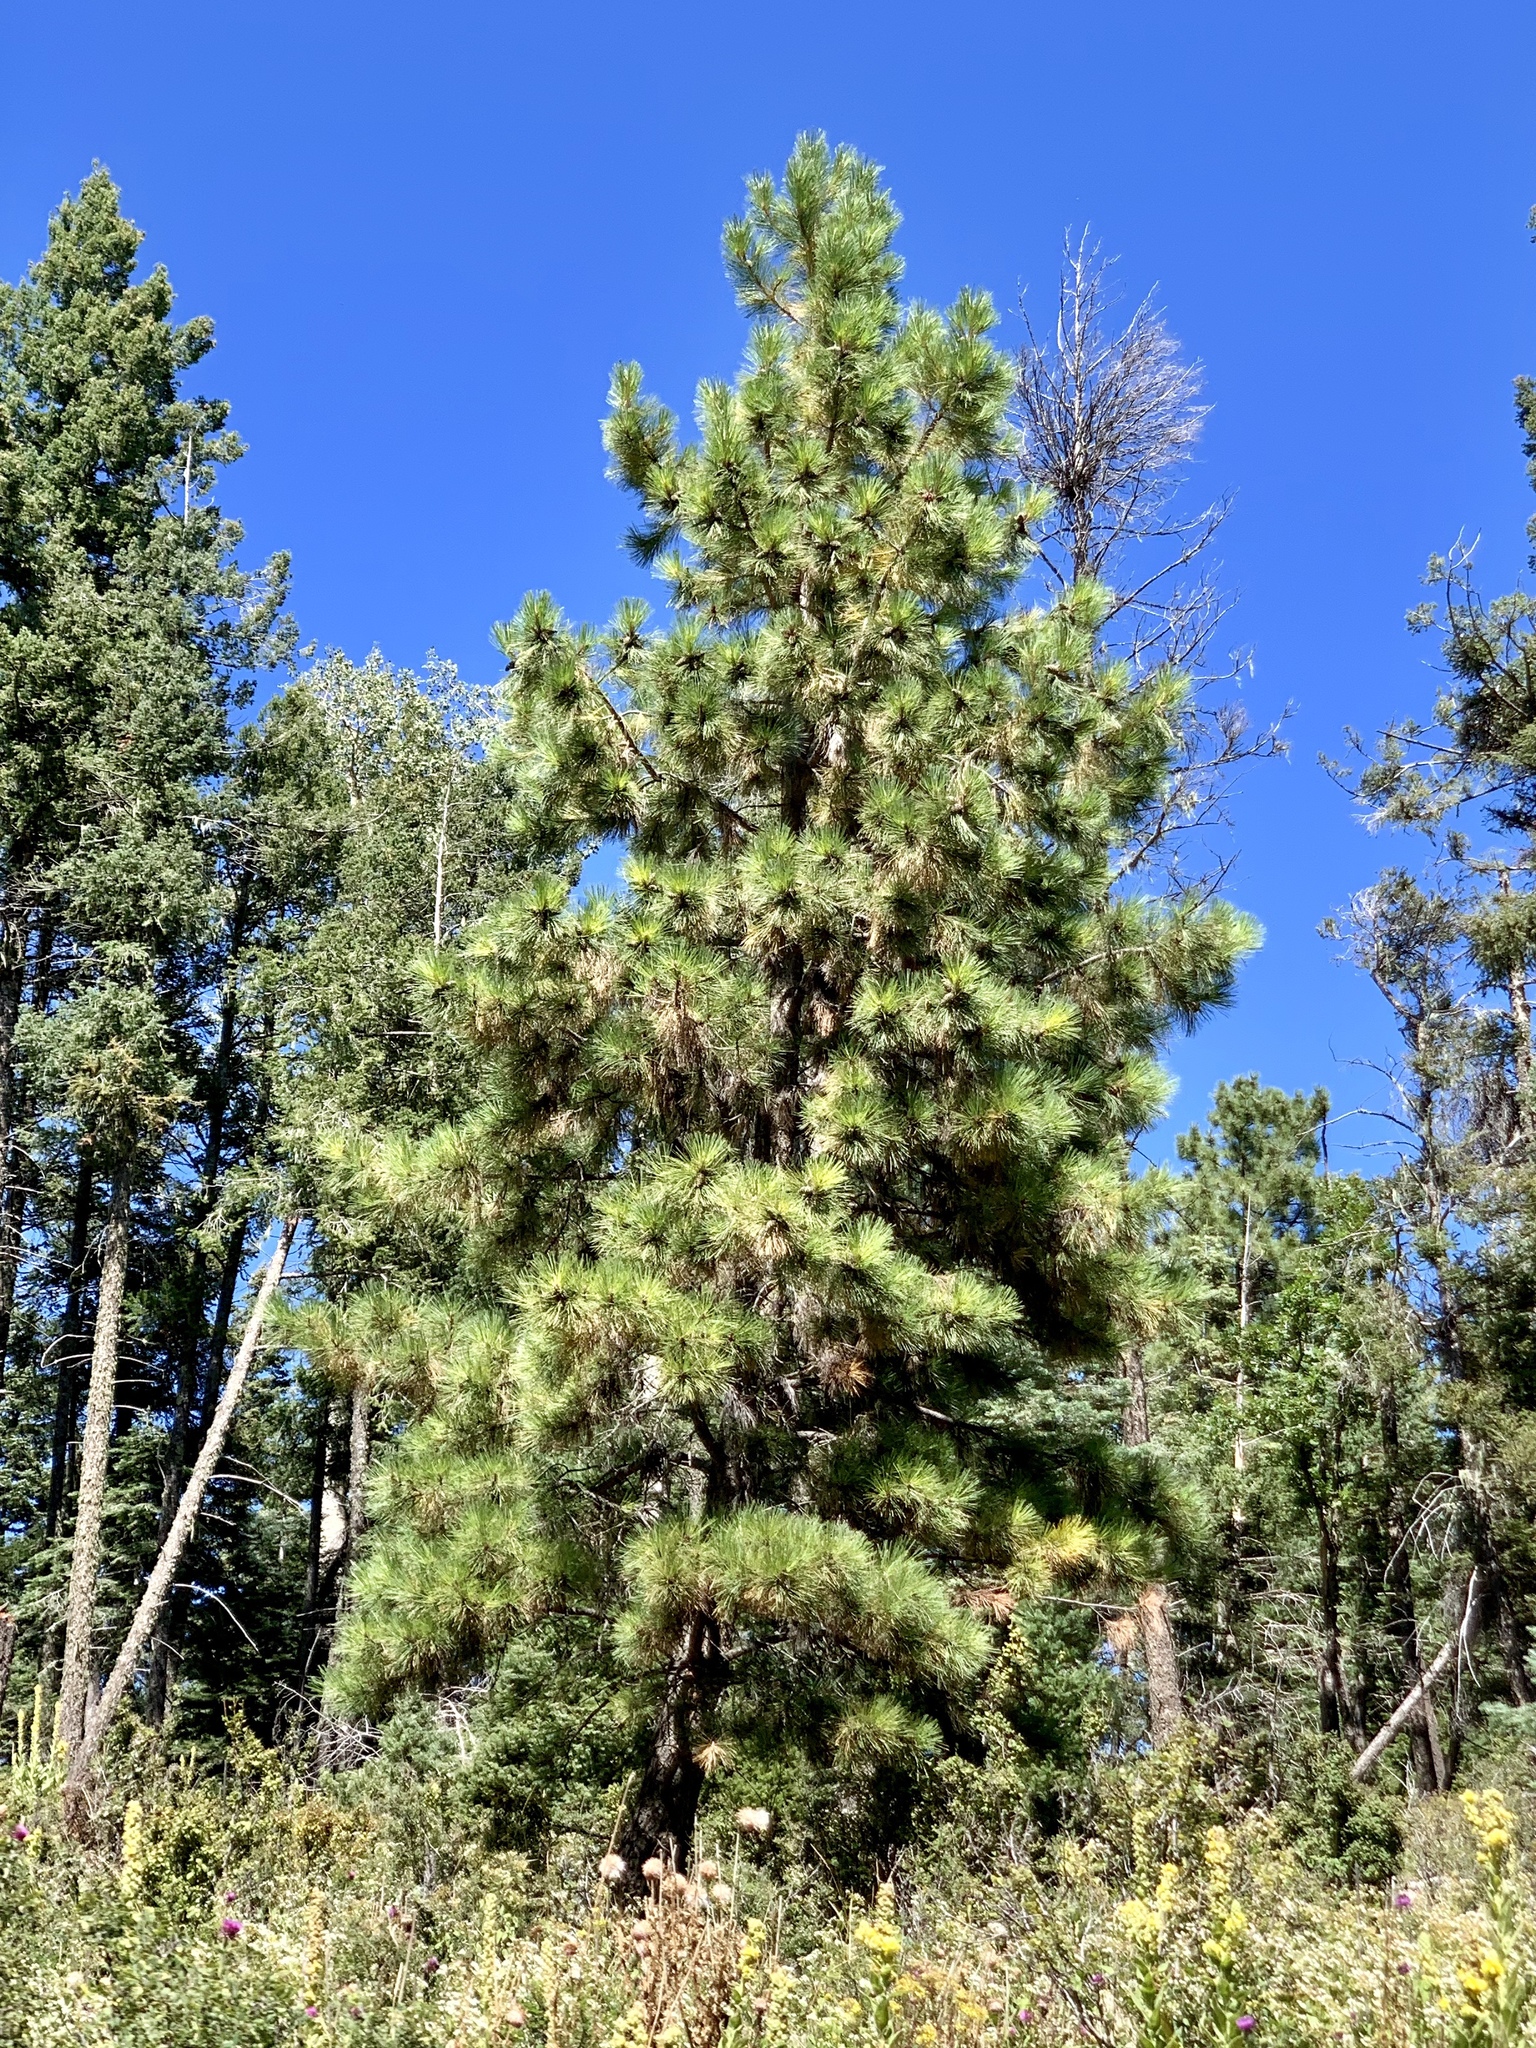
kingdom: Plantae
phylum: Tracheophyta
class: Pinopsida
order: Pinales
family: Pinaceae
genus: Pinus
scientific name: Pinus ponderosa
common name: Western yellow-pine
